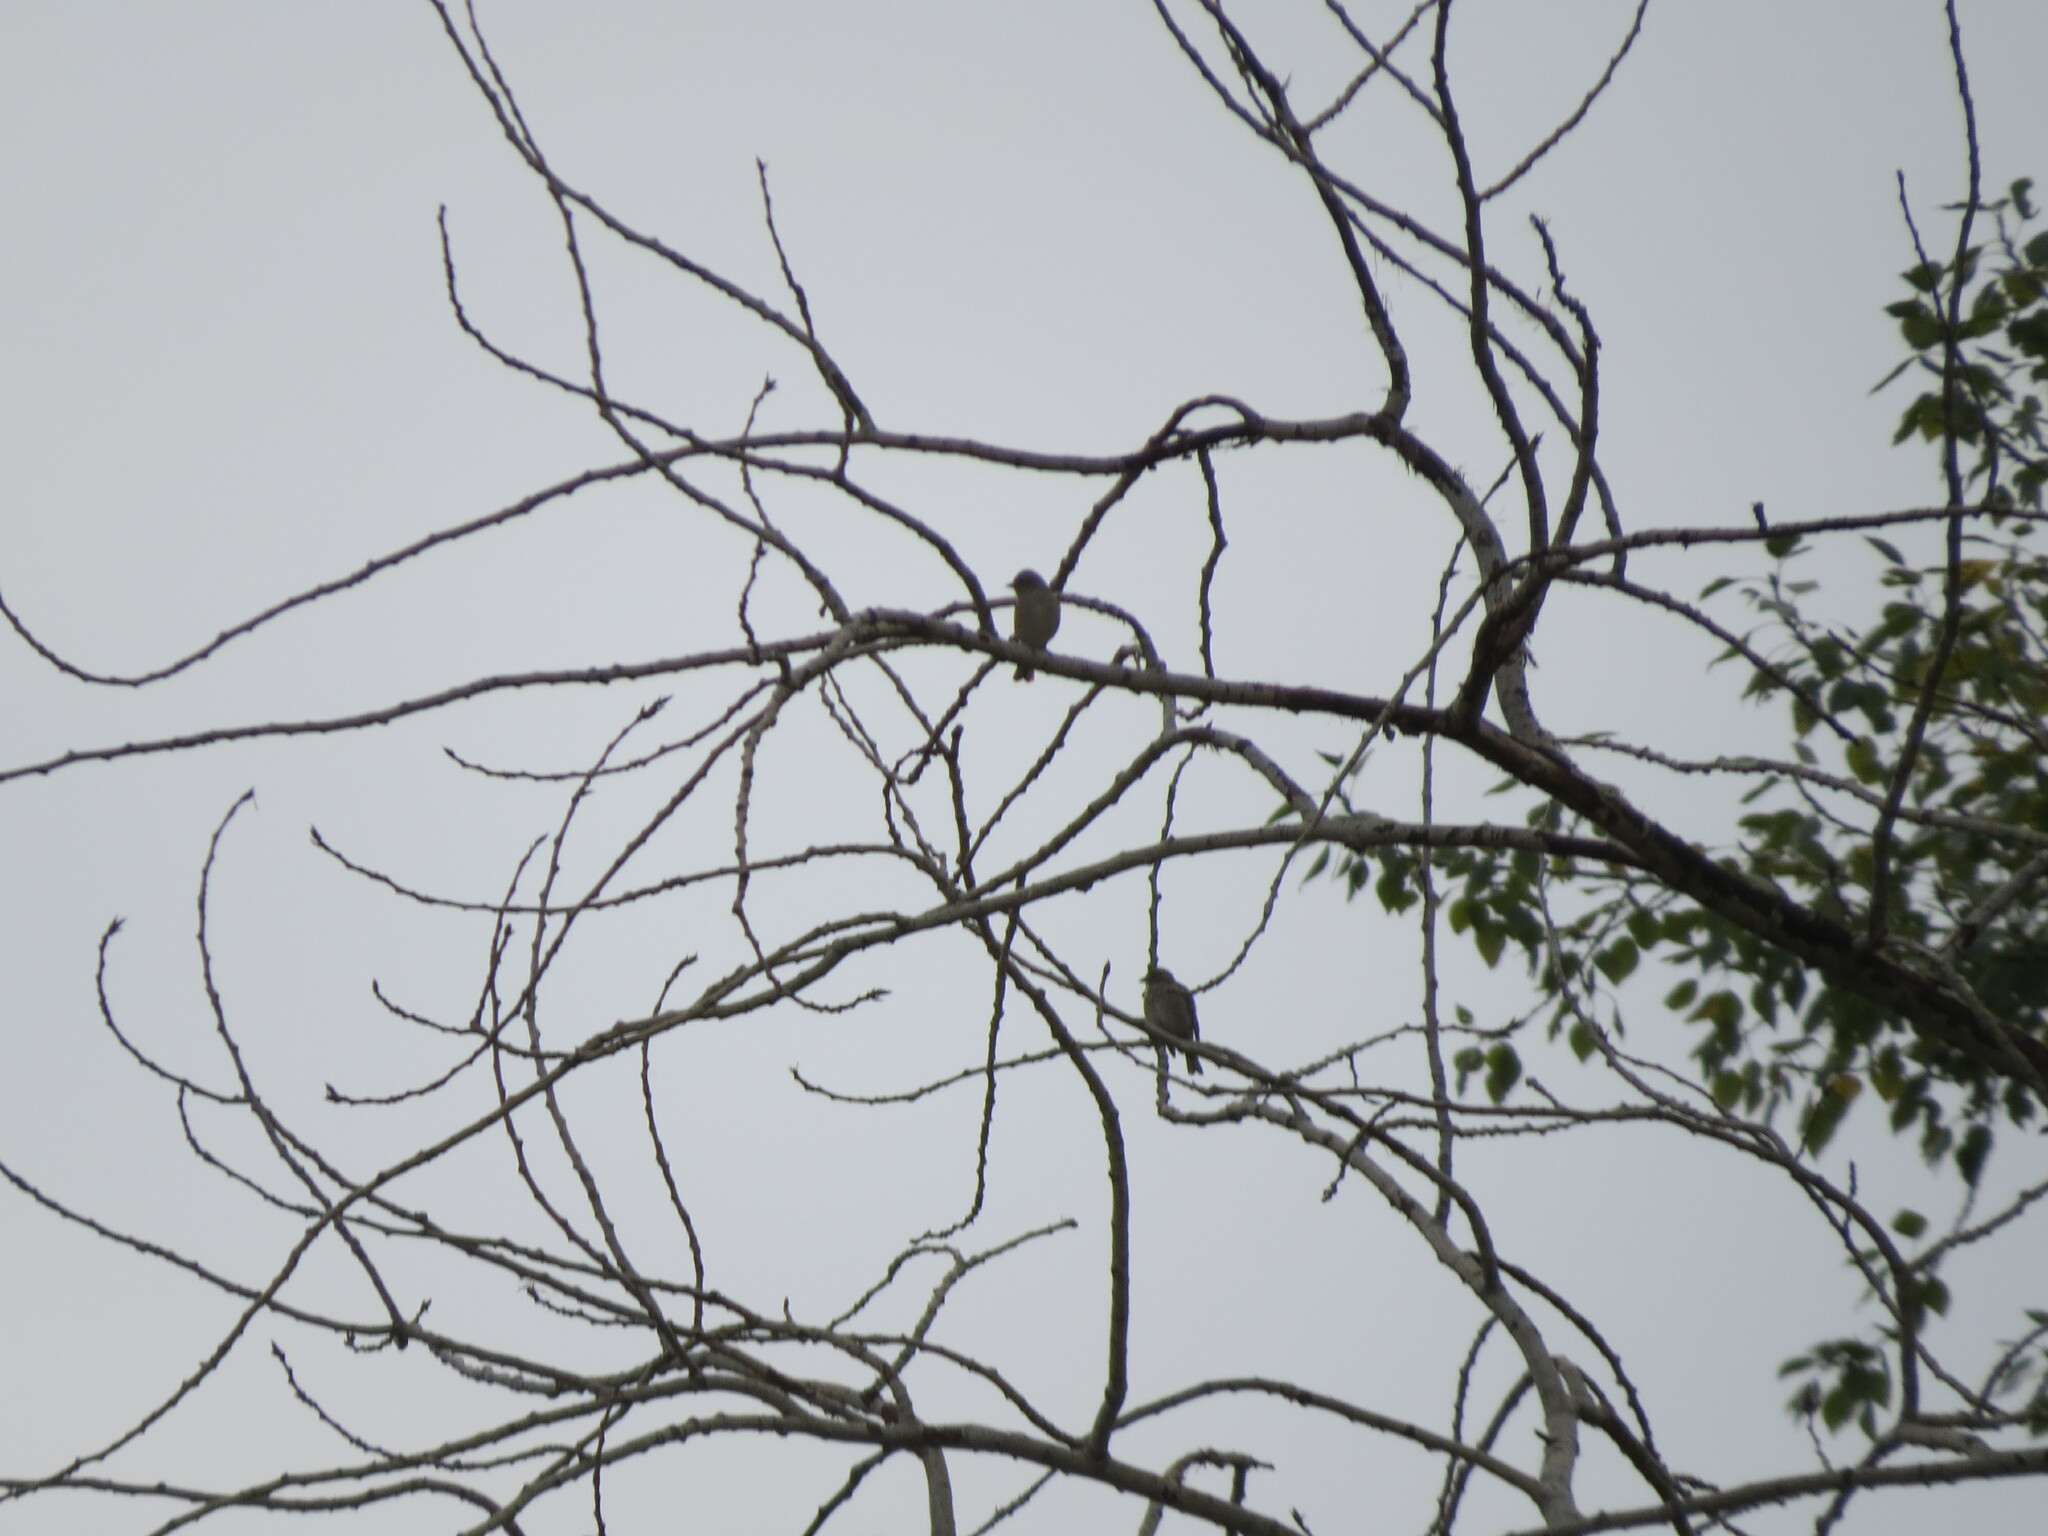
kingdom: Animalia
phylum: Chordata
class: Aves
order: Passeriformes
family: Fringillidae
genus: Fringilla
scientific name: Fringilla coelebs
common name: Common chaffinch
